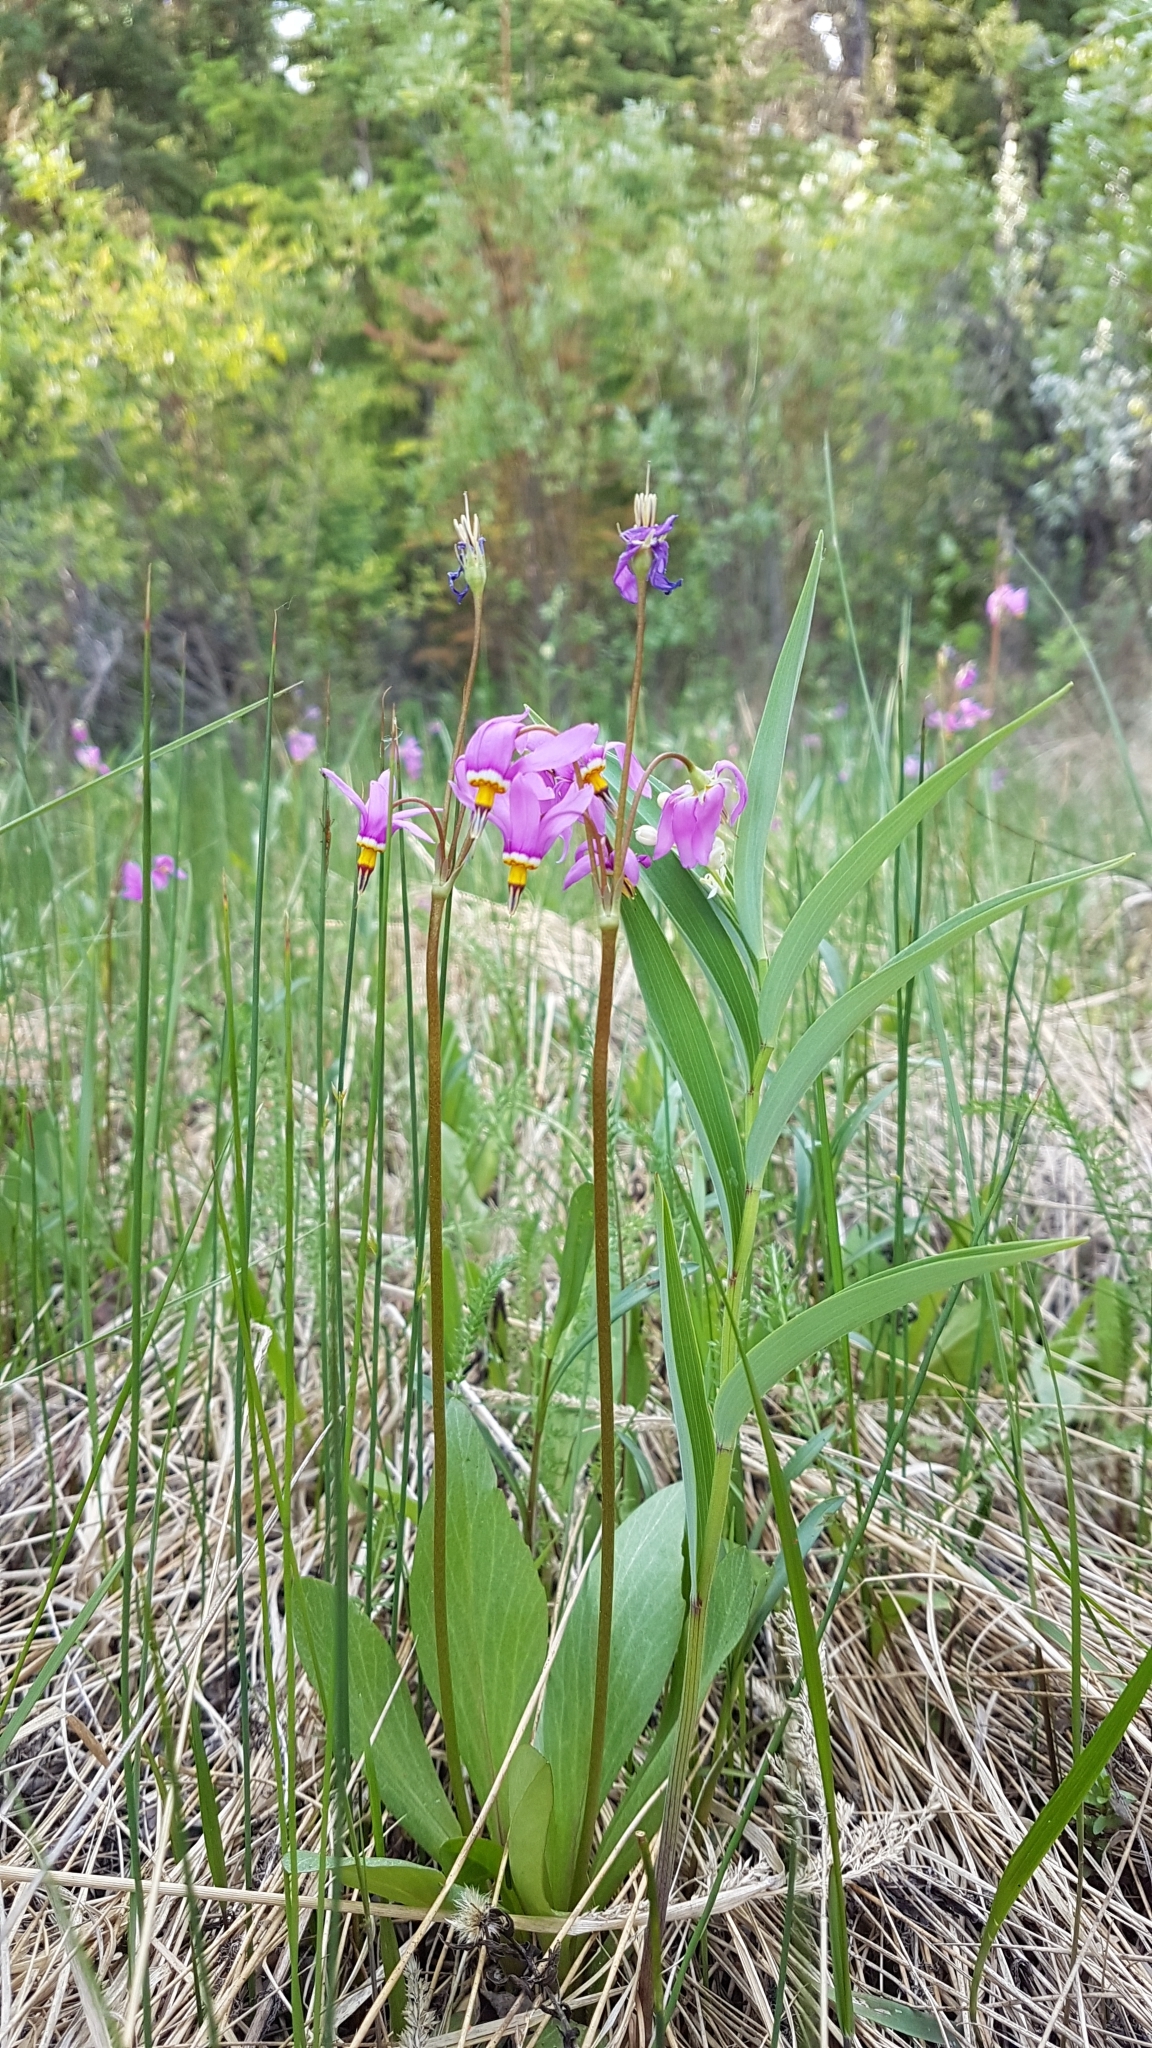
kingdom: Plantae
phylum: Tracheophyta
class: Magnoliopsida
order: Ericales
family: Primulaceae
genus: Dodecatheon
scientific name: Dodecatheon pulchellum
